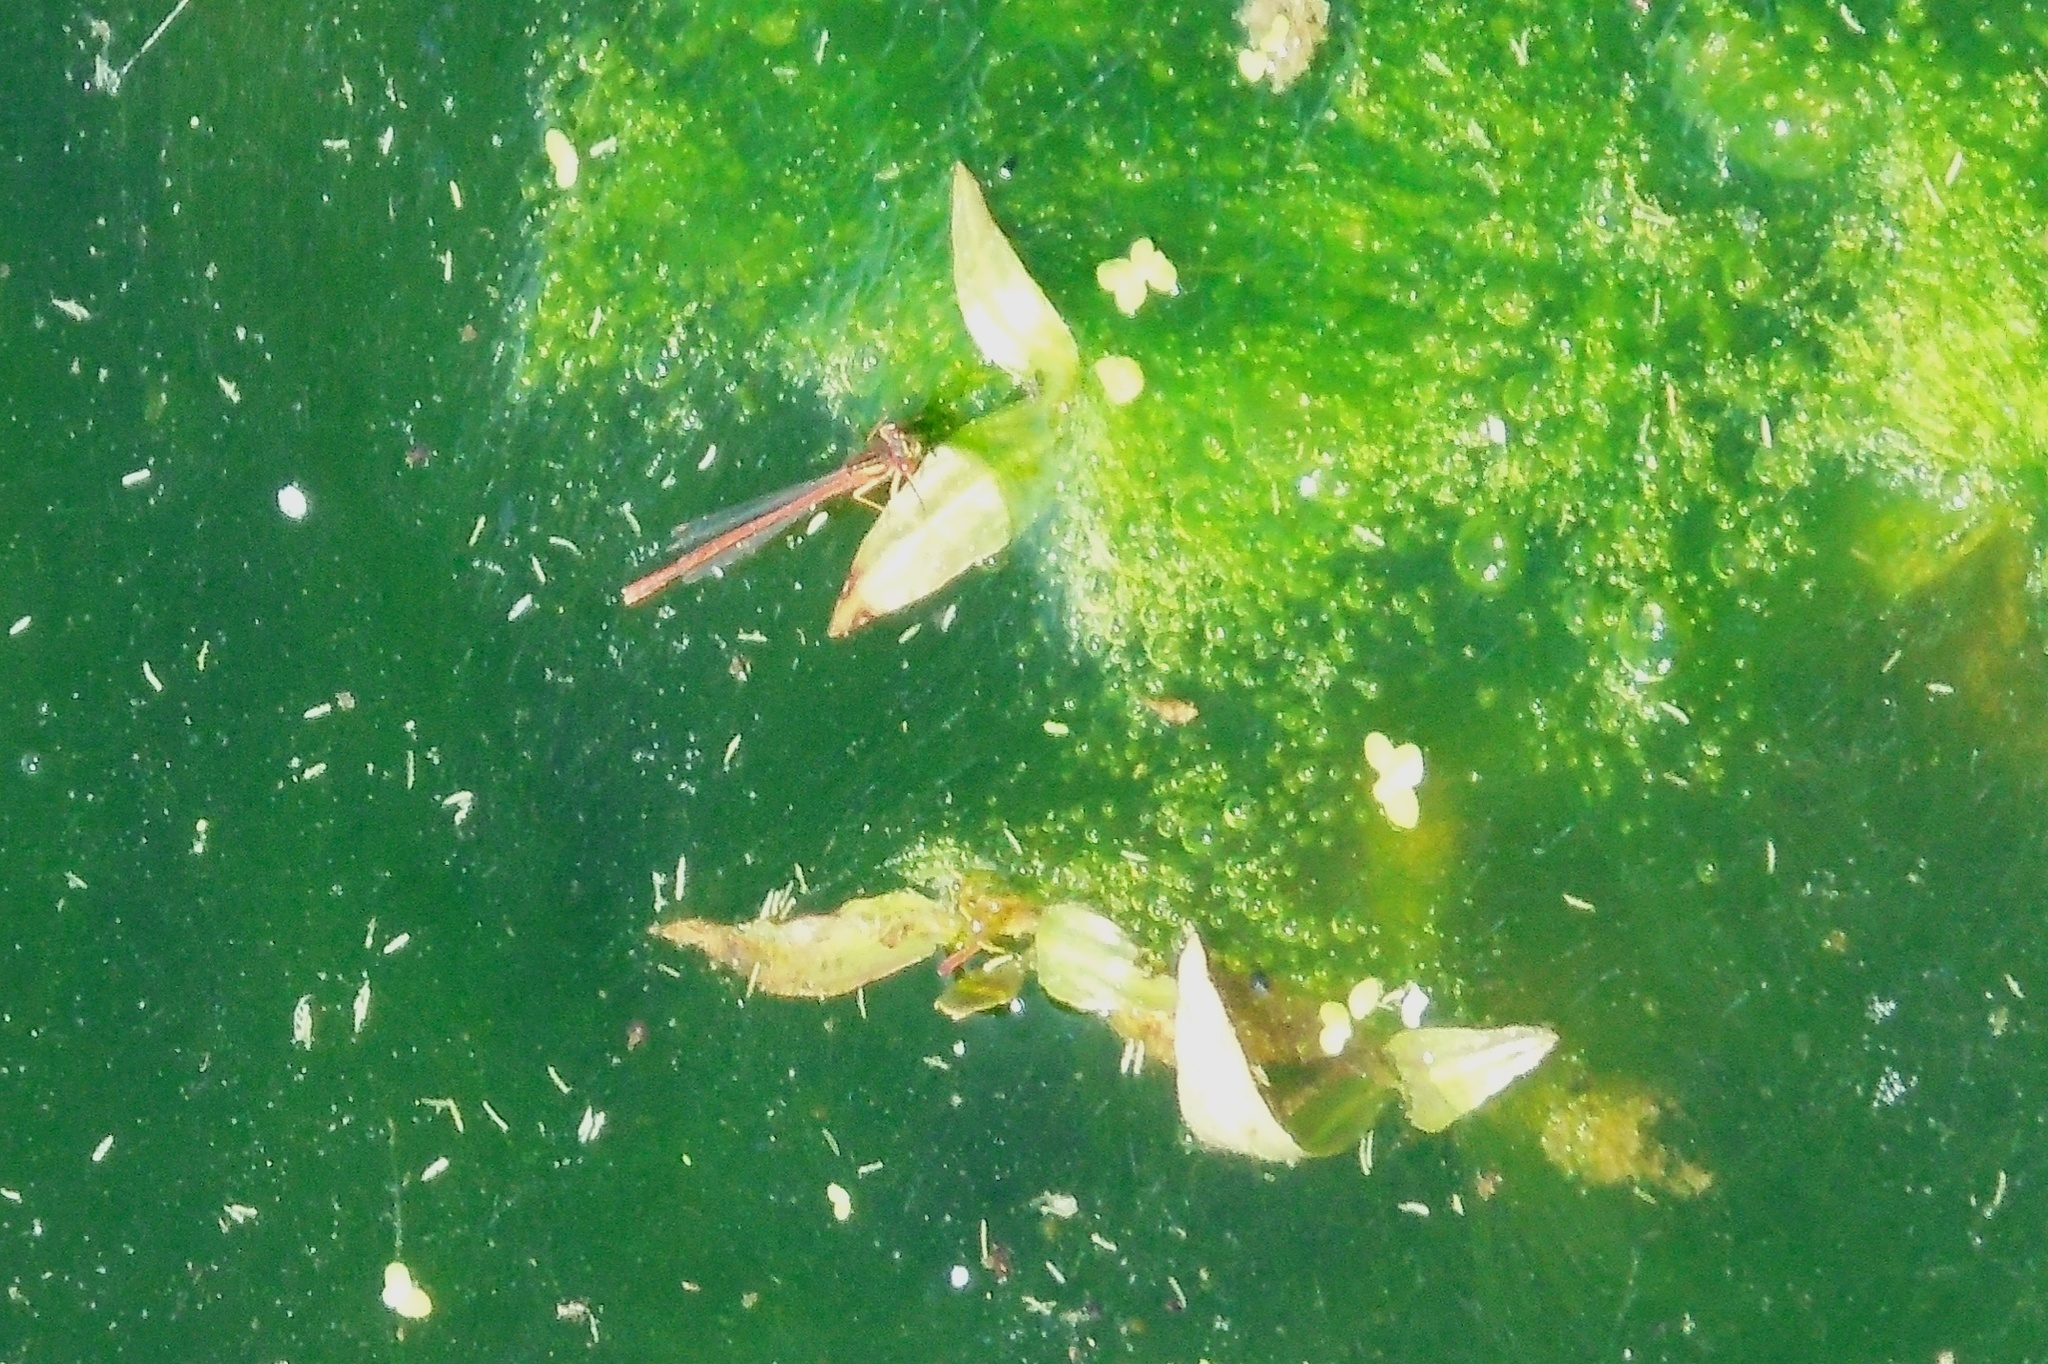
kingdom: Animalia
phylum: Arthropoda
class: Insecta
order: Odonata
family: Coenagrionidae
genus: Xanthocnemis
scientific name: Xanthocnemis zealandica
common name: Common redcoat damselfly
